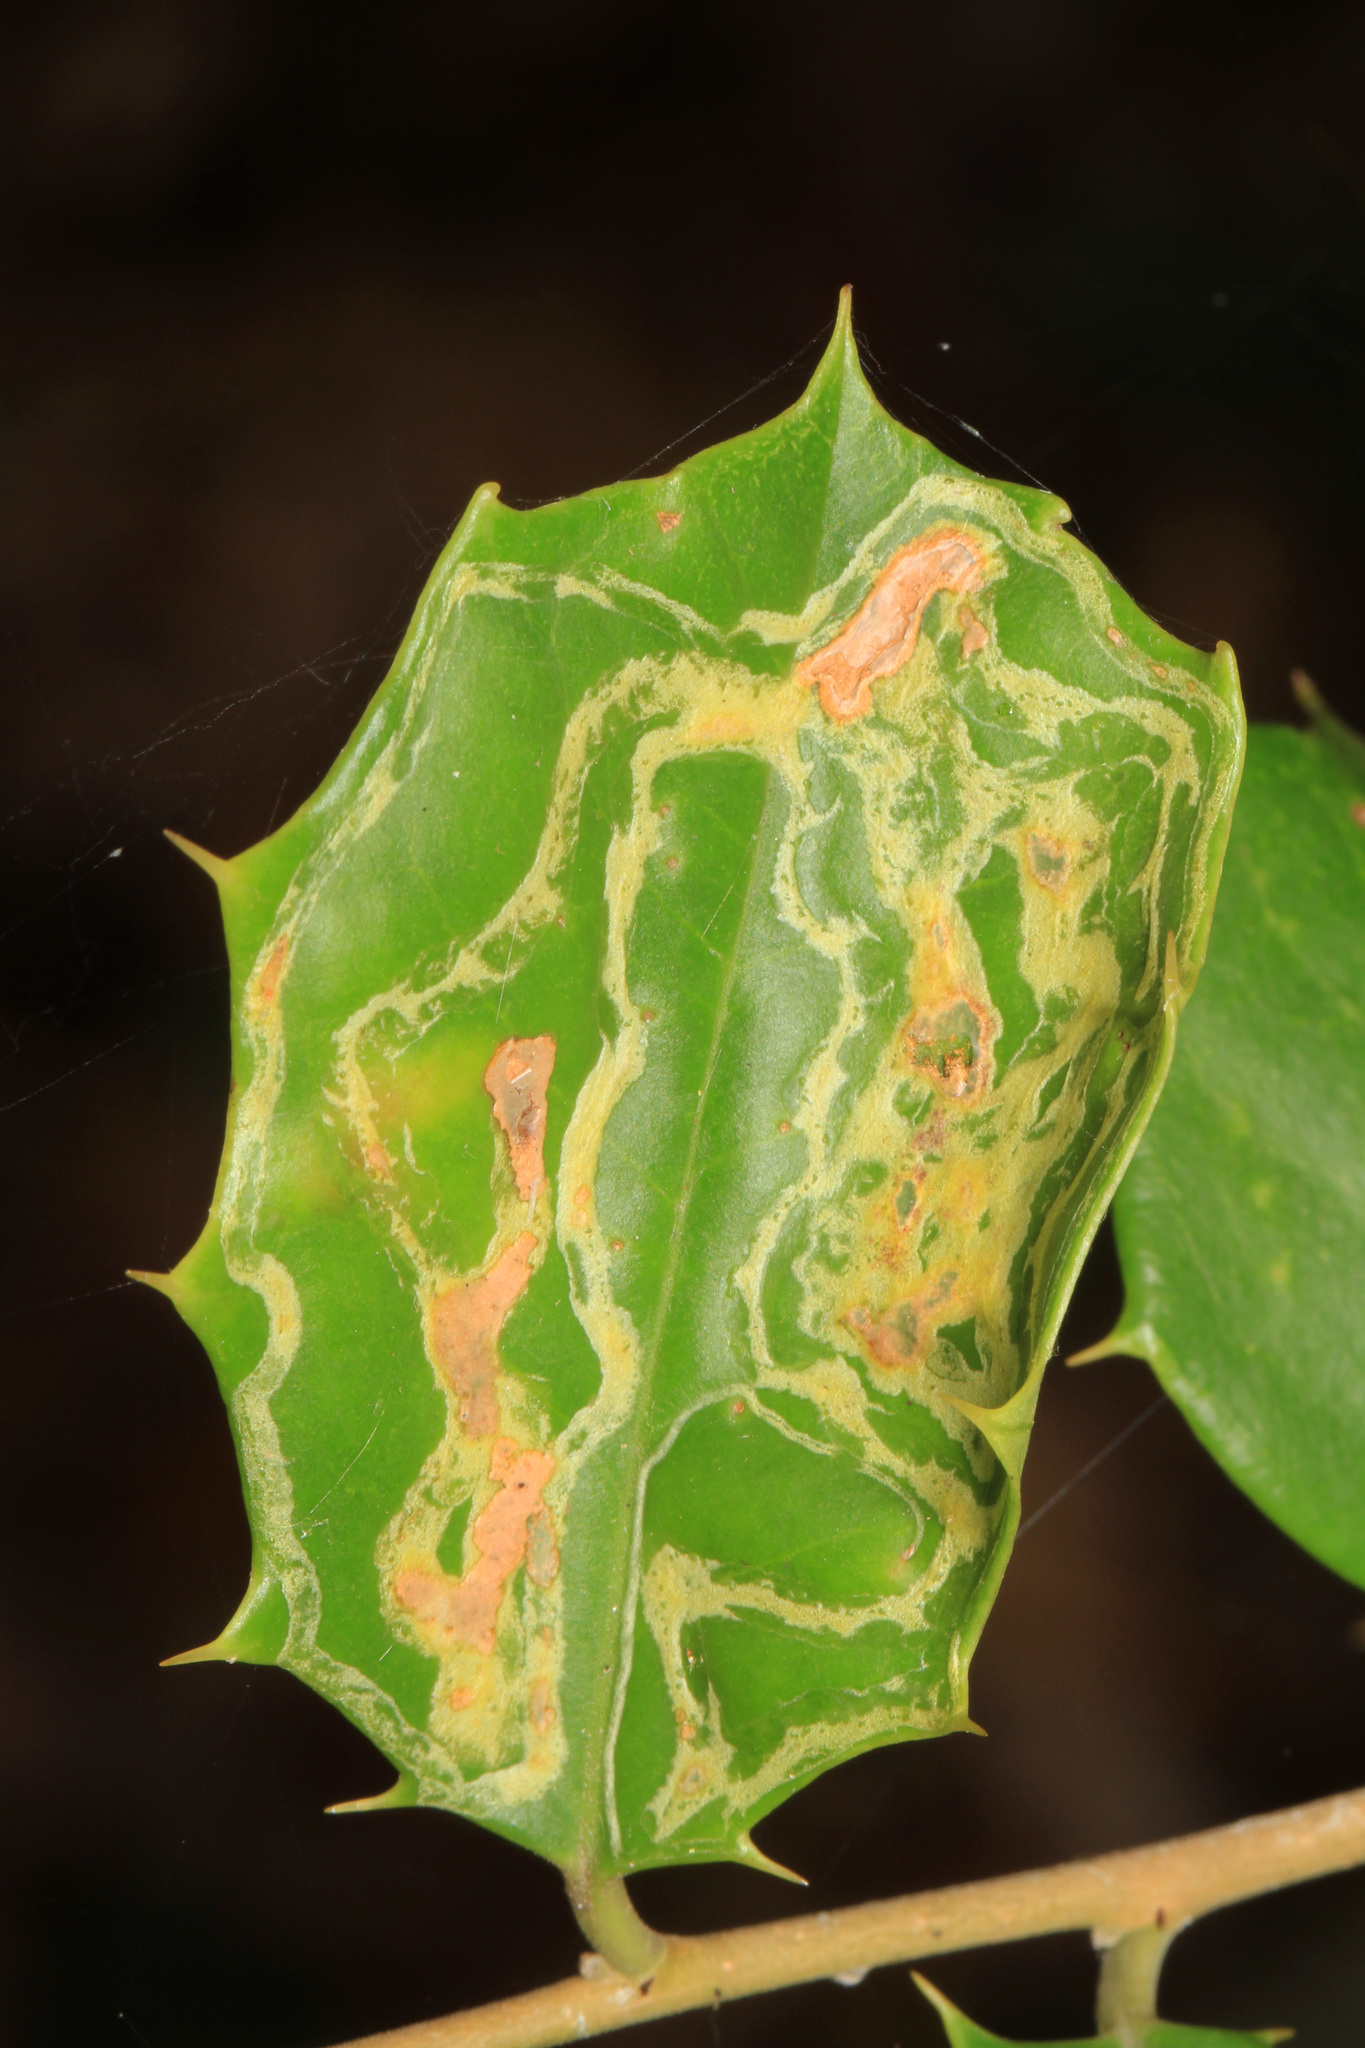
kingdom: Animalia
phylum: Arthropoda
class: Insecta
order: Diptera
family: Agromyzidae
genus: Phytomyza
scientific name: Phytomyza opacae
